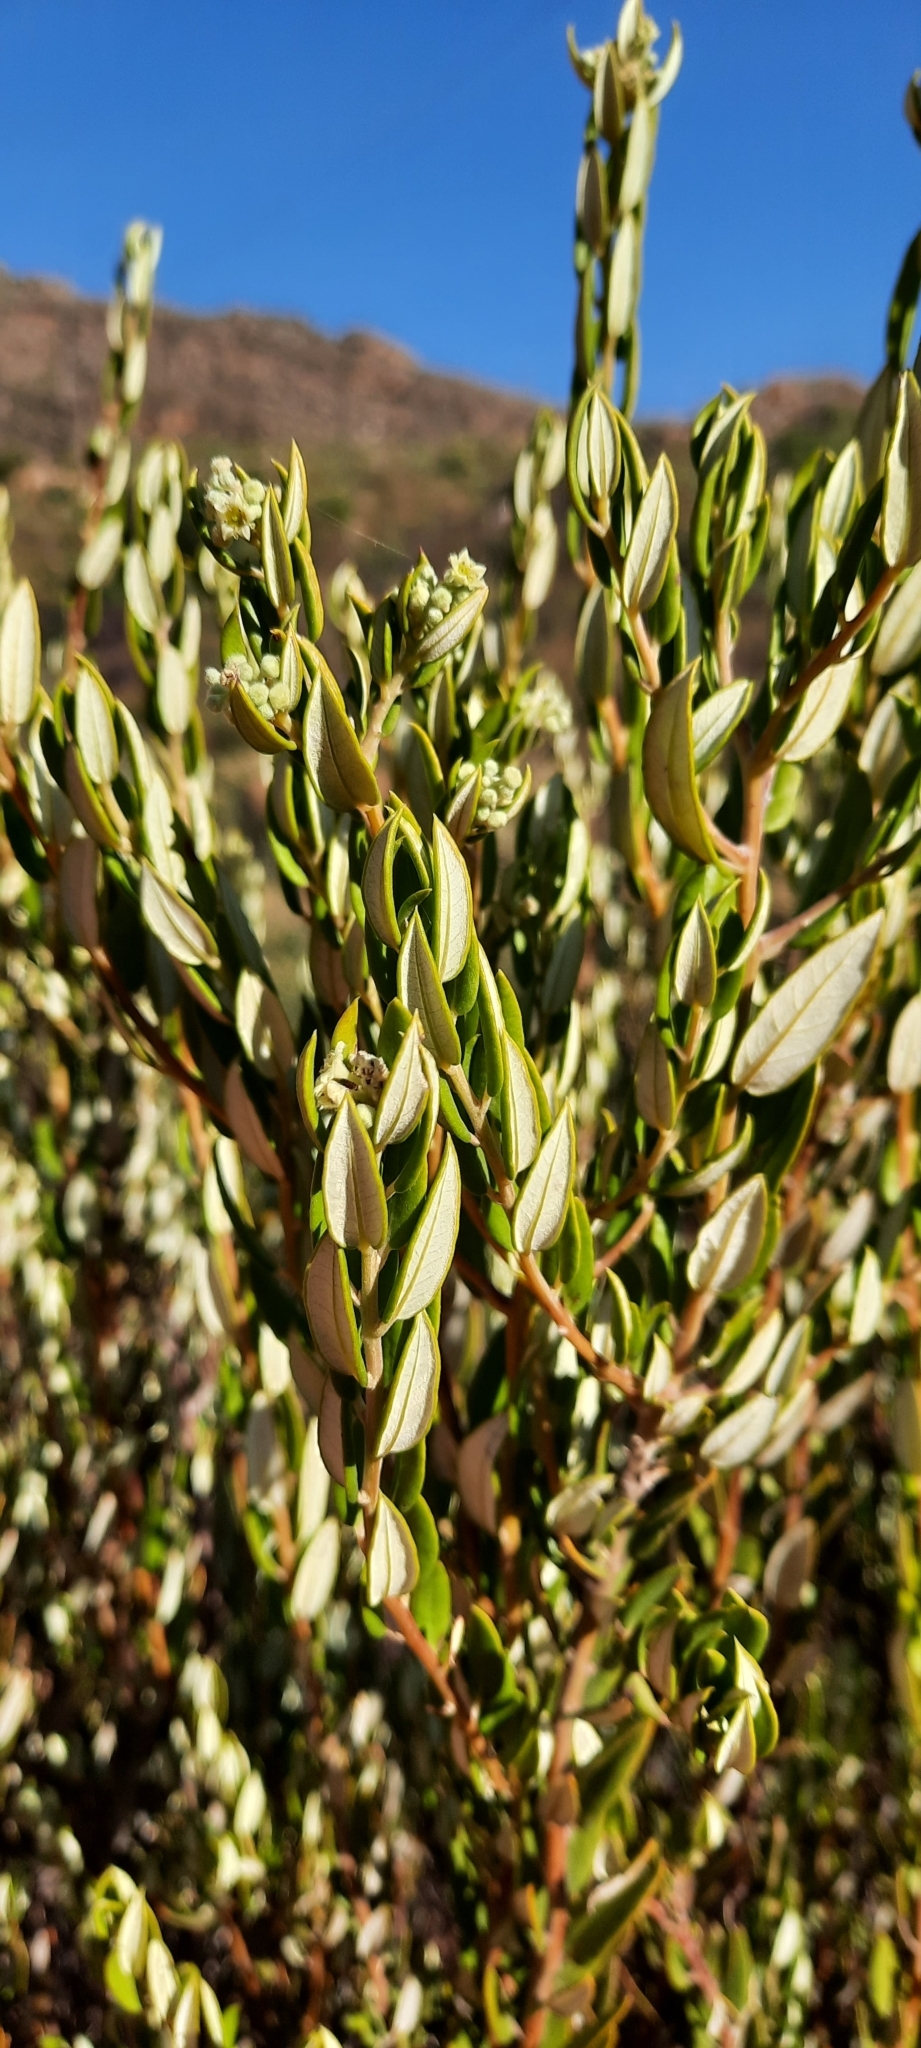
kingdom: Plantae
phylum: Tracheophyta
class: Magnoliopsida
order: Rosales
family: Rhamnaceae
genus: Phylica
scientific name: Phylica oleifolia
